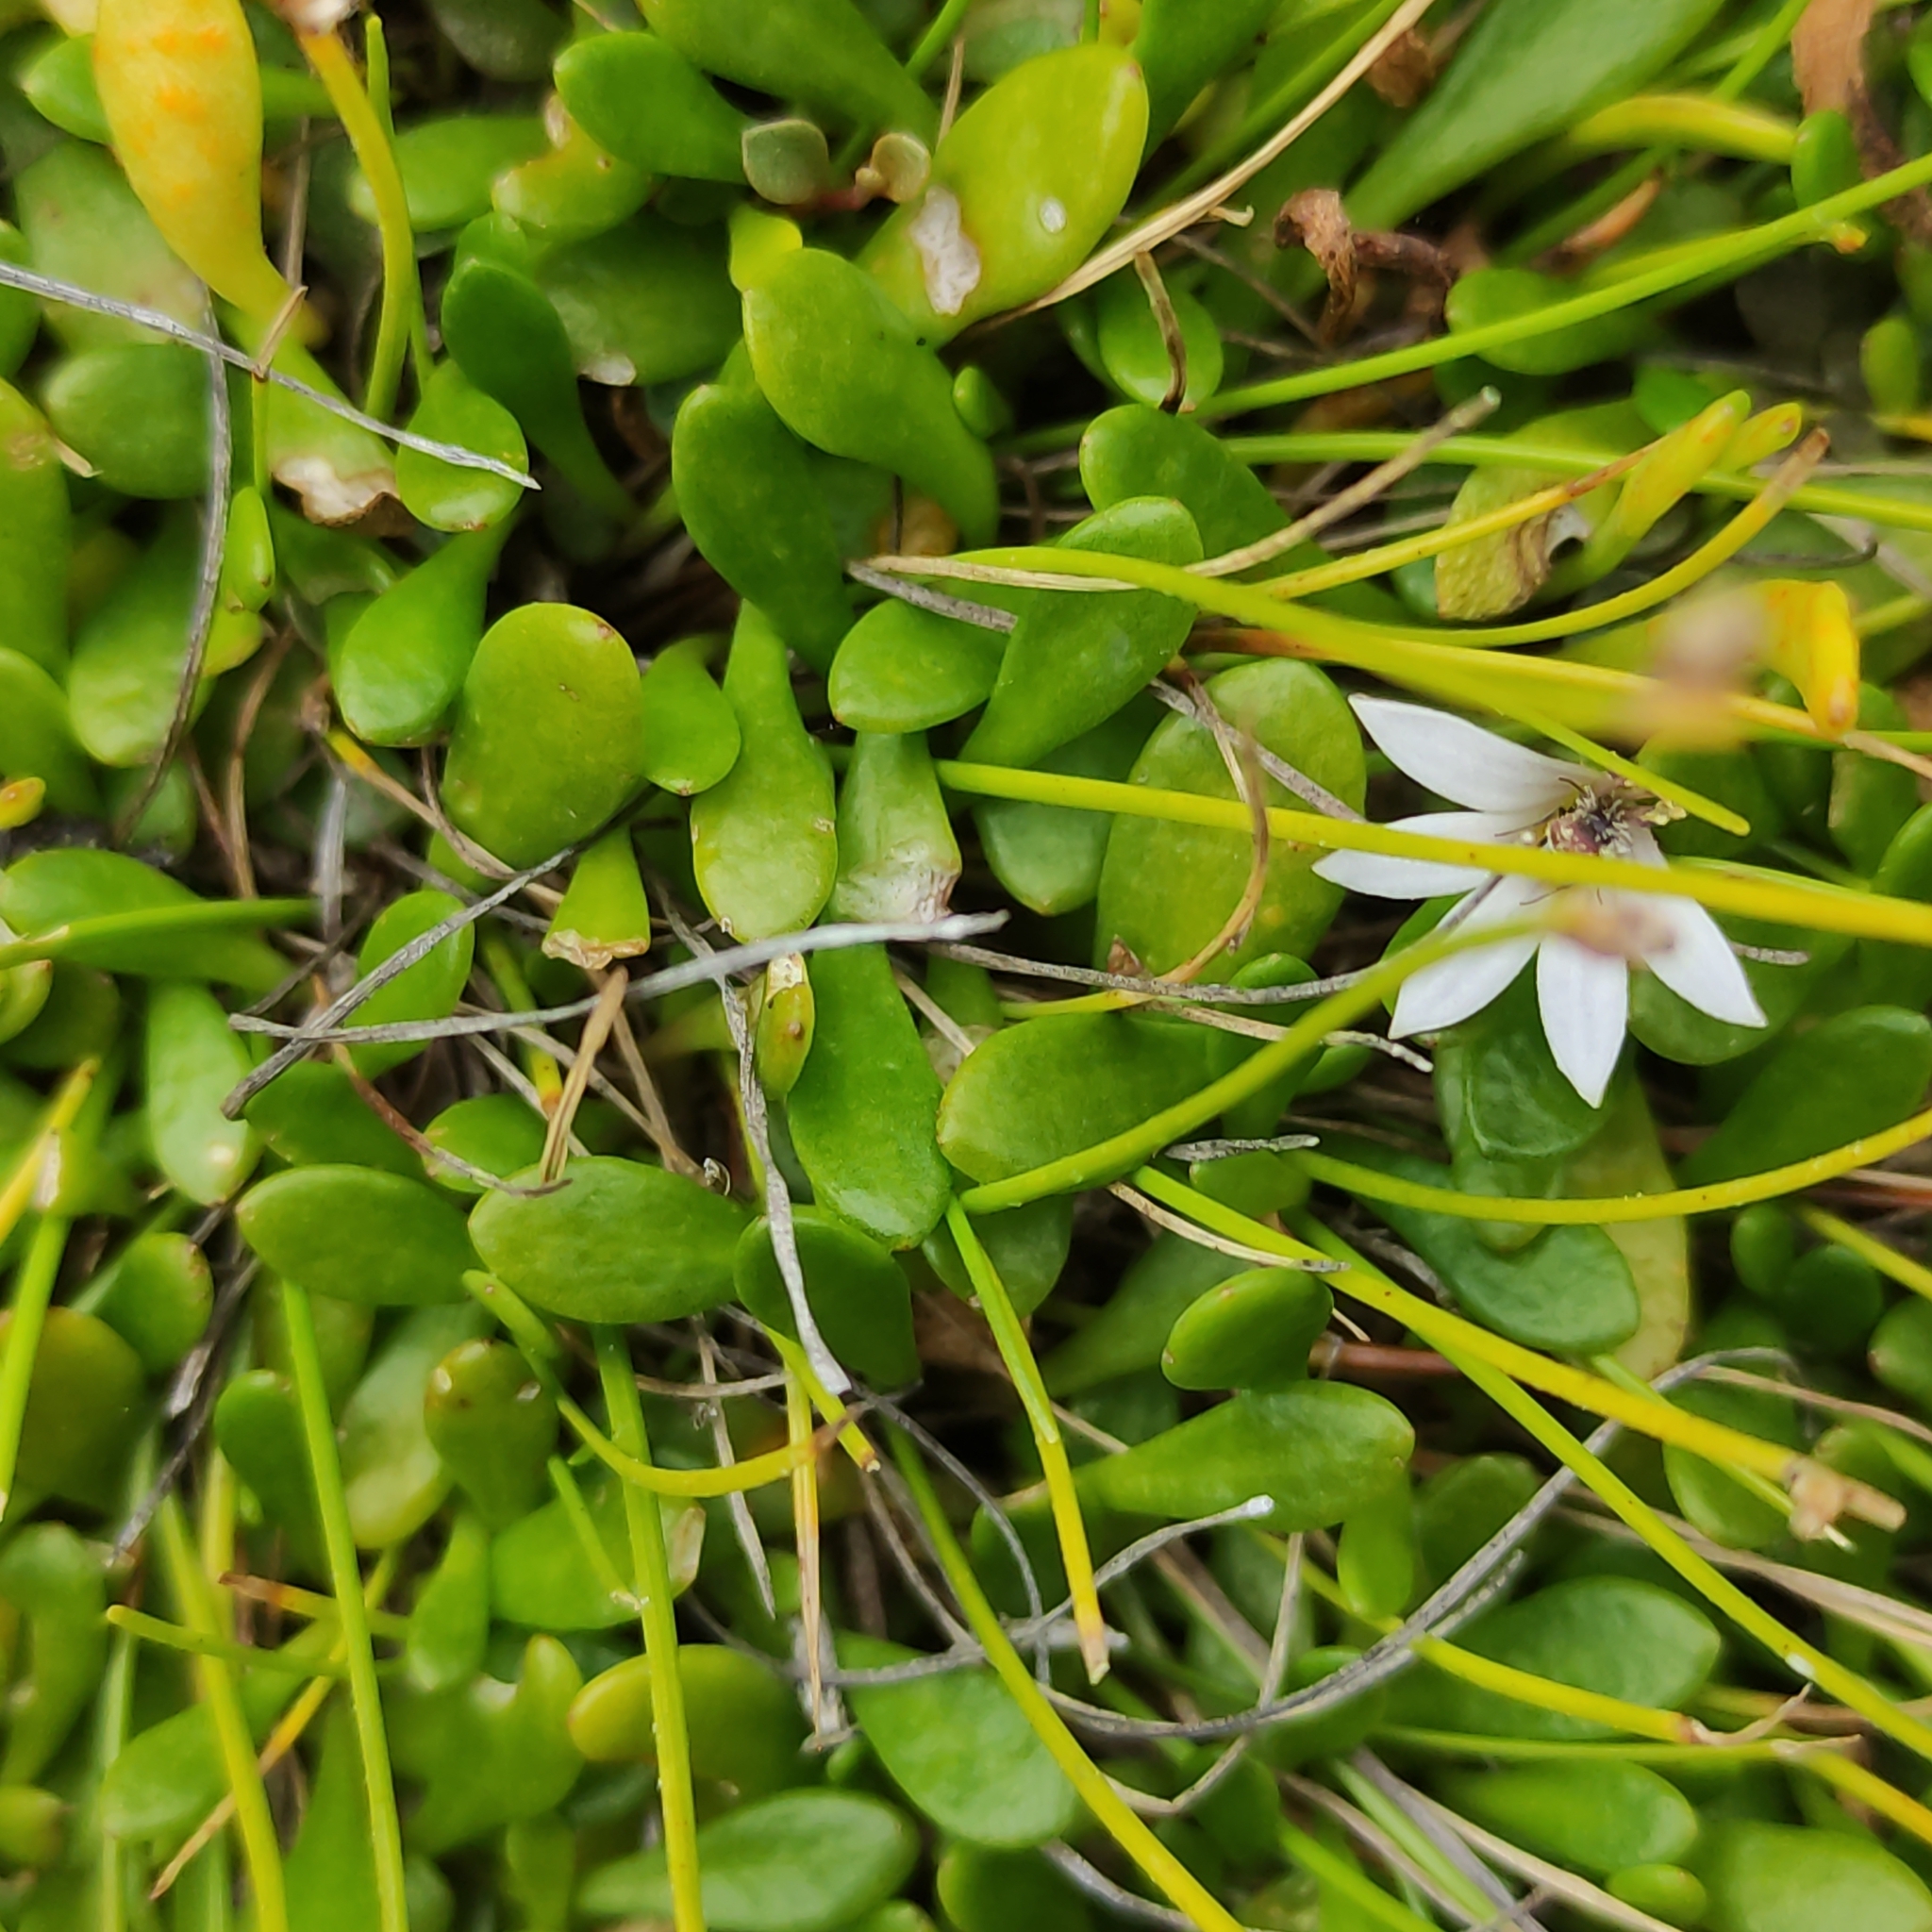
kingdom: Plantae
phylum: Tracheophyta
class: Magnoliopsida
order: Asterales
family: Goodeniaceae
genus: Goodenia
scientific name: Goodenia radicans
